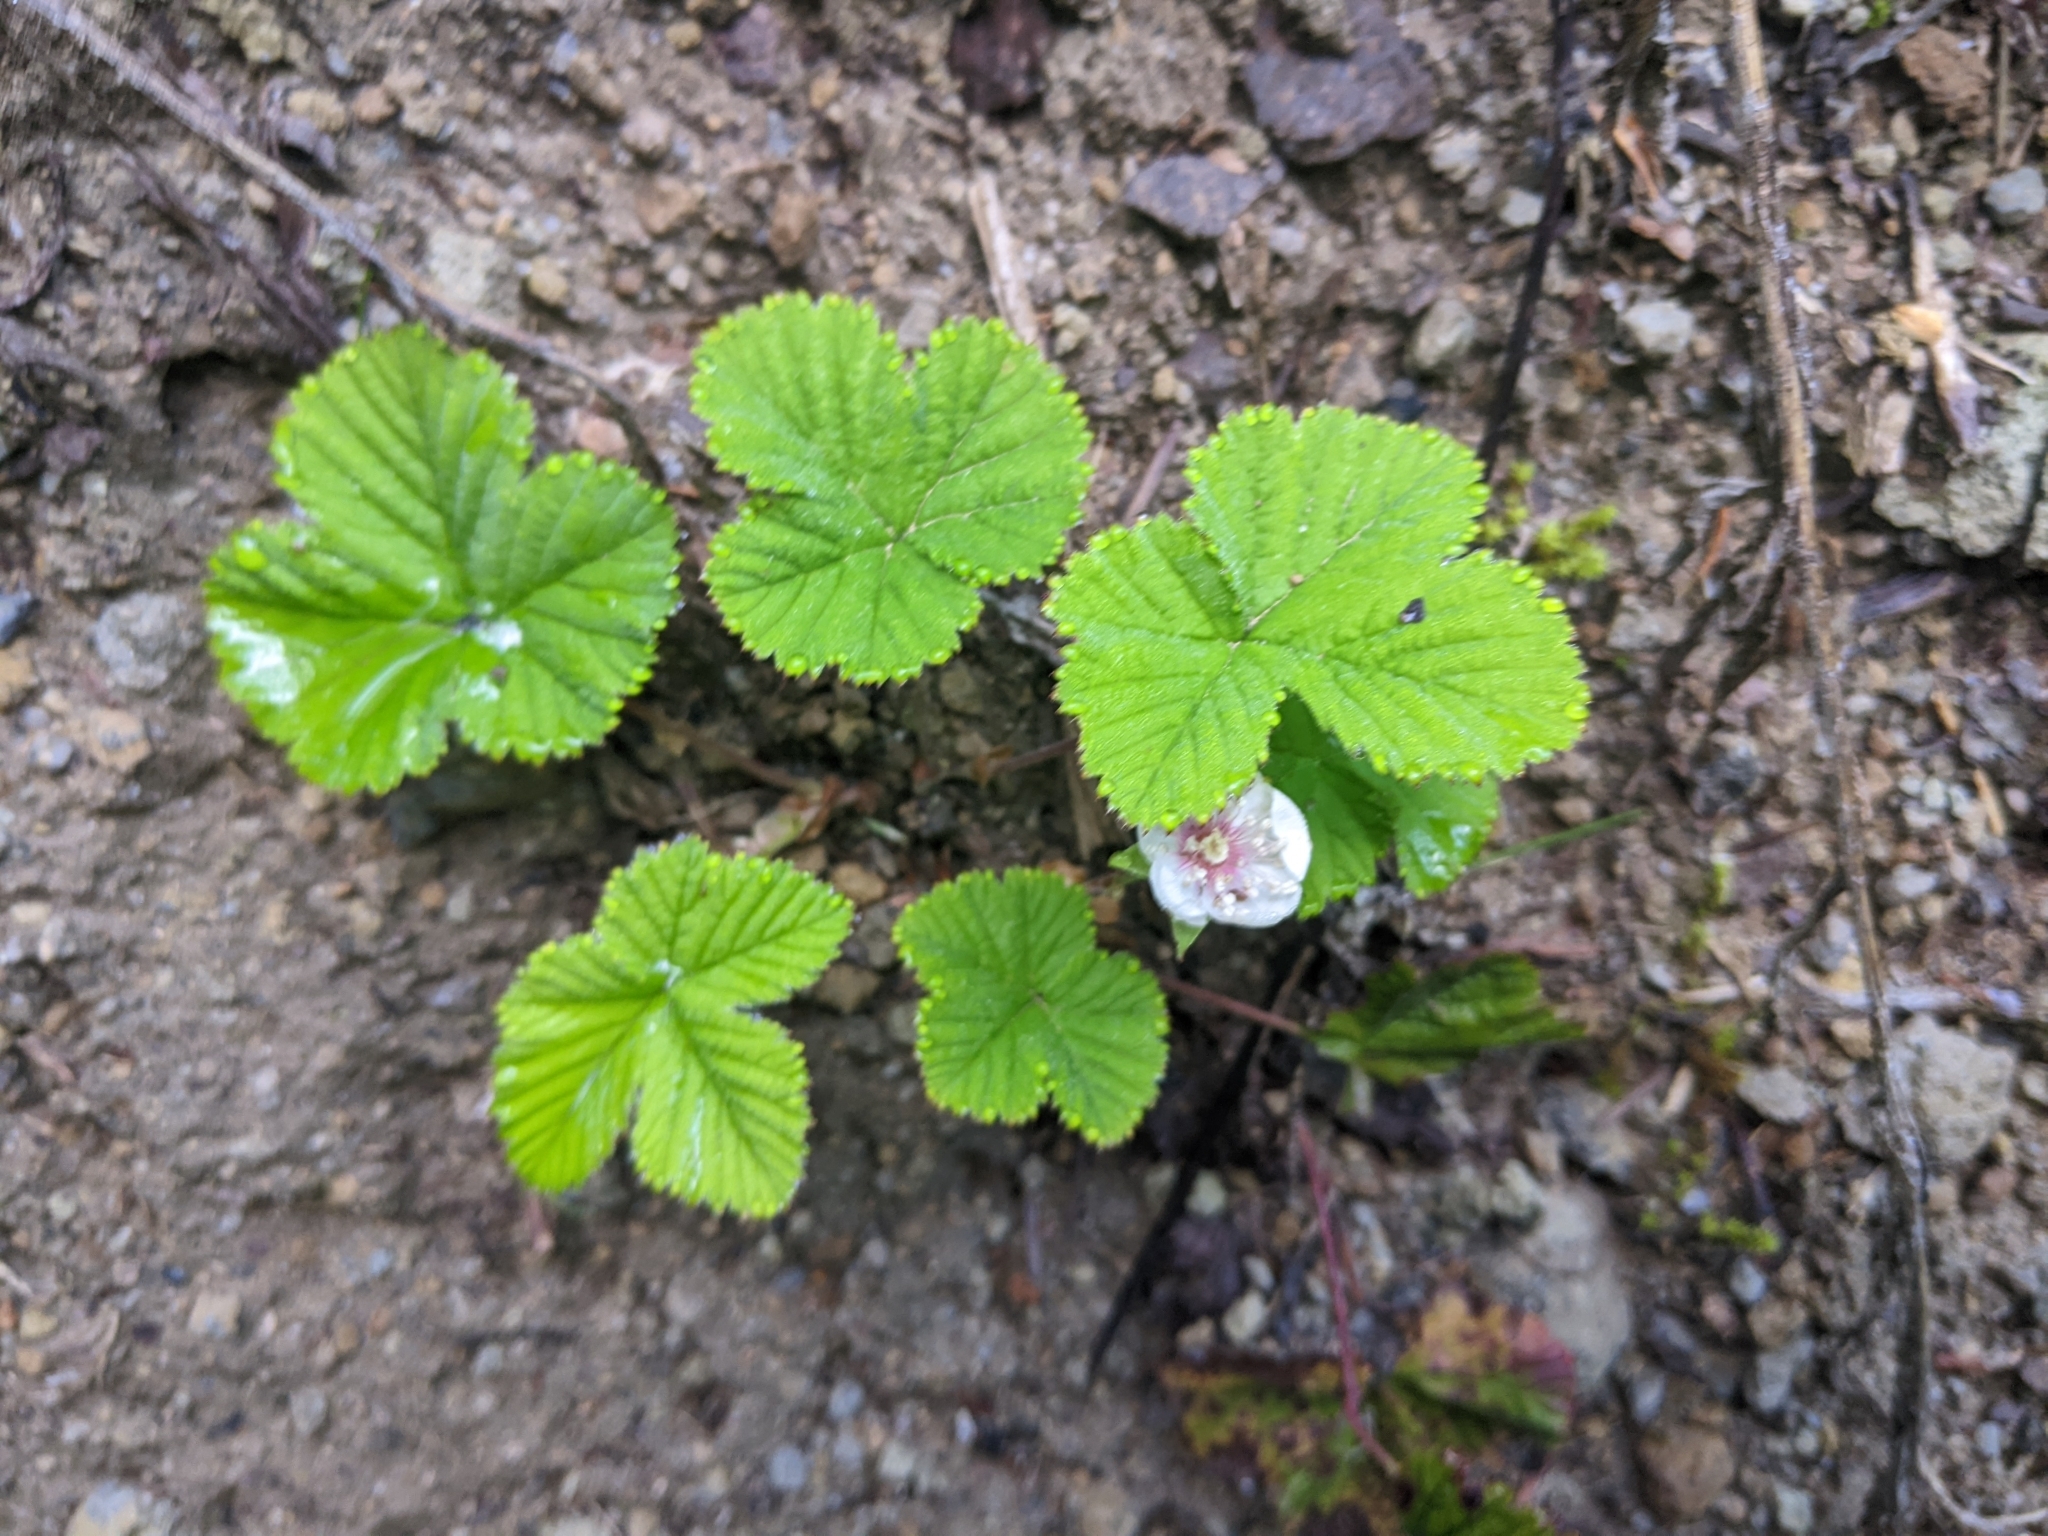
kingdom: Plantae
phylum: Tracheophyta
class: Magnoliopsida
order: Rosales
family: Rosaceae
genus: Rubus
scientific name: Rubus lasiococcus
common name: Dwarf bramble
